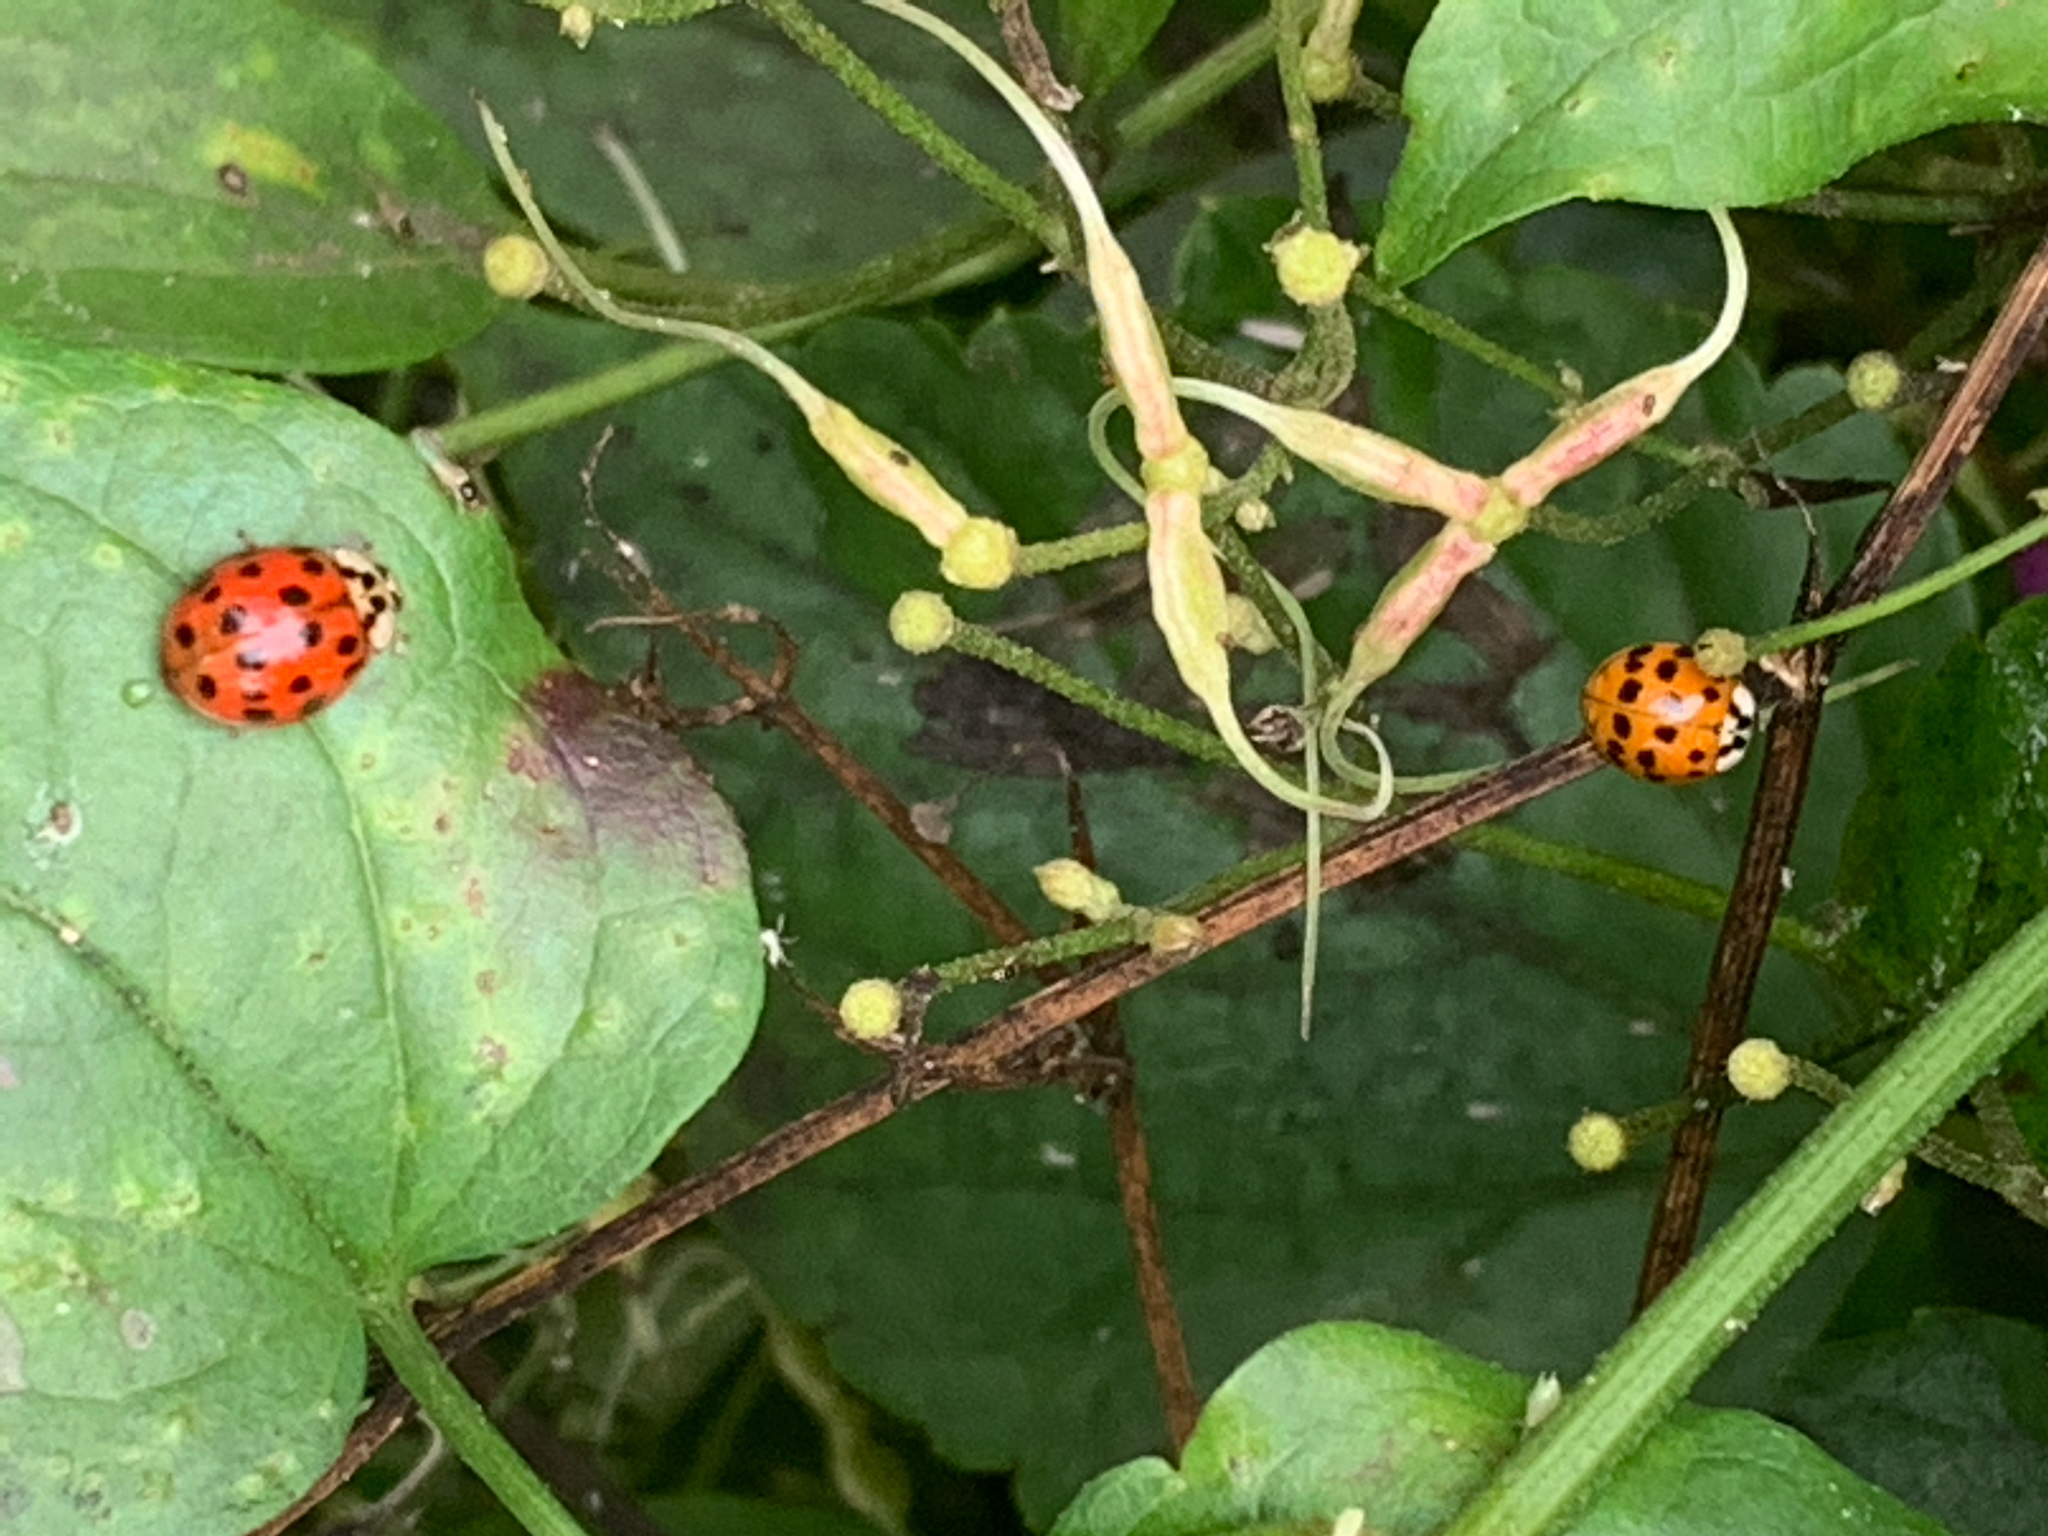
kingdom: Animalia
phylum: Arthropoda
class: Insecta
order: Coleoptera
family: Coccinellidae
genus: Harmonia
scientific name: Harmonia axyridis
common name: Harlequin ladybird
